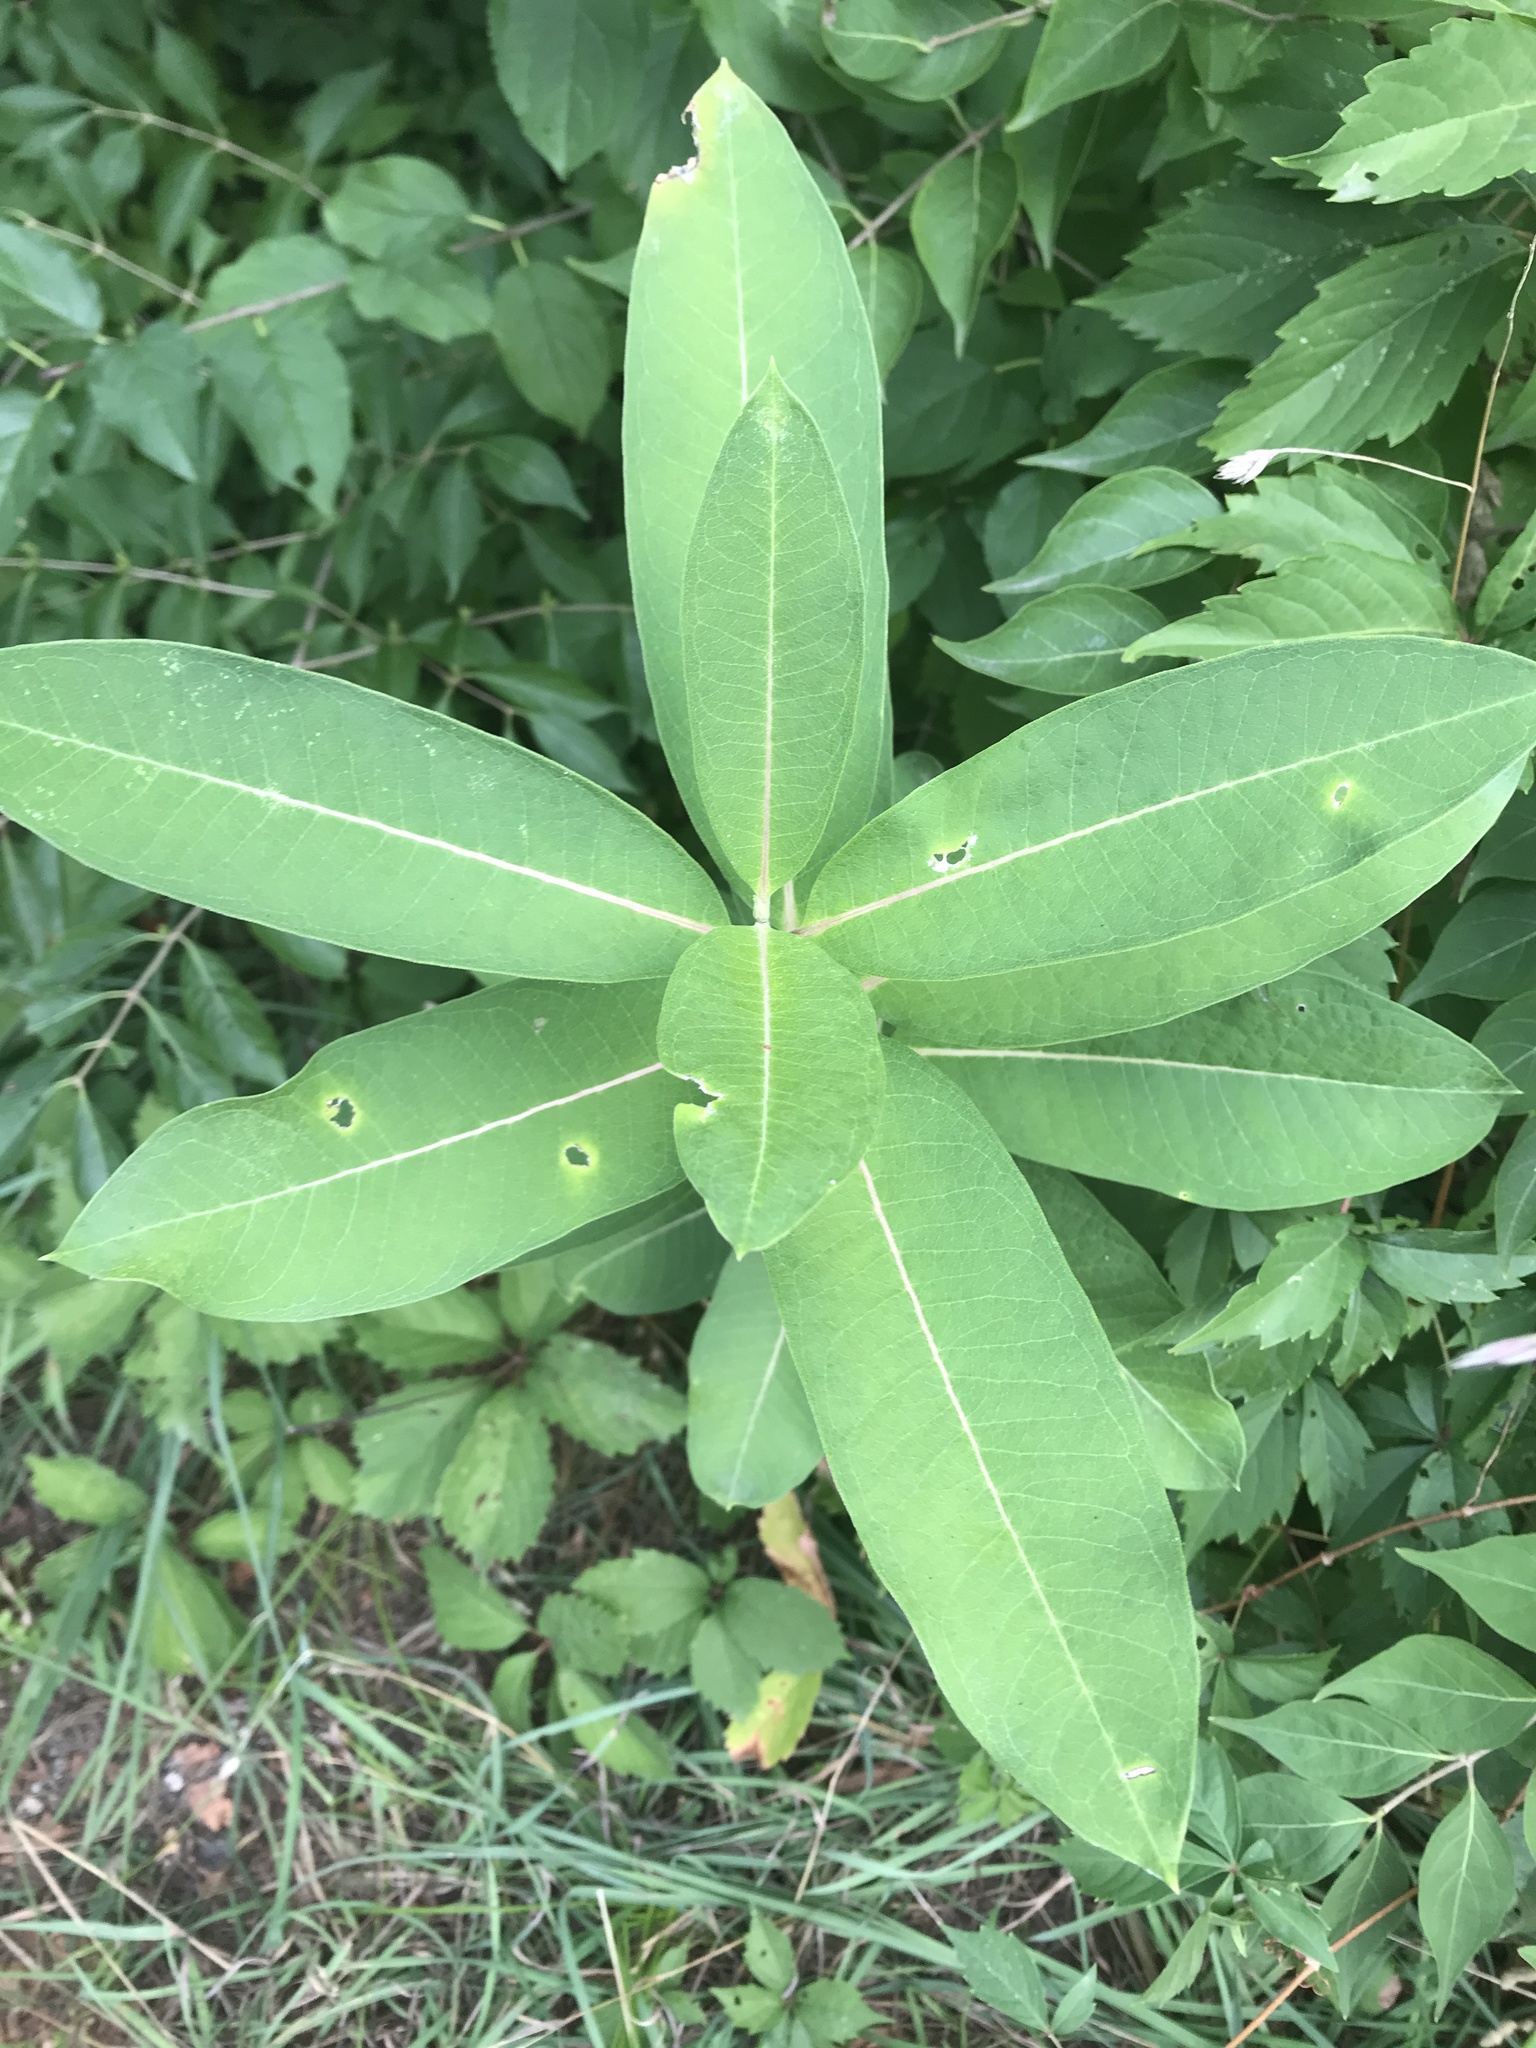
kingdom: Plantae
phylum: Tracheophyta
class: Magnoliopsida
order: Gentianales
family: Apocynaceae
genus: Asclepias
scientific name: Asclepias syriaca
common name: Common milkweed
